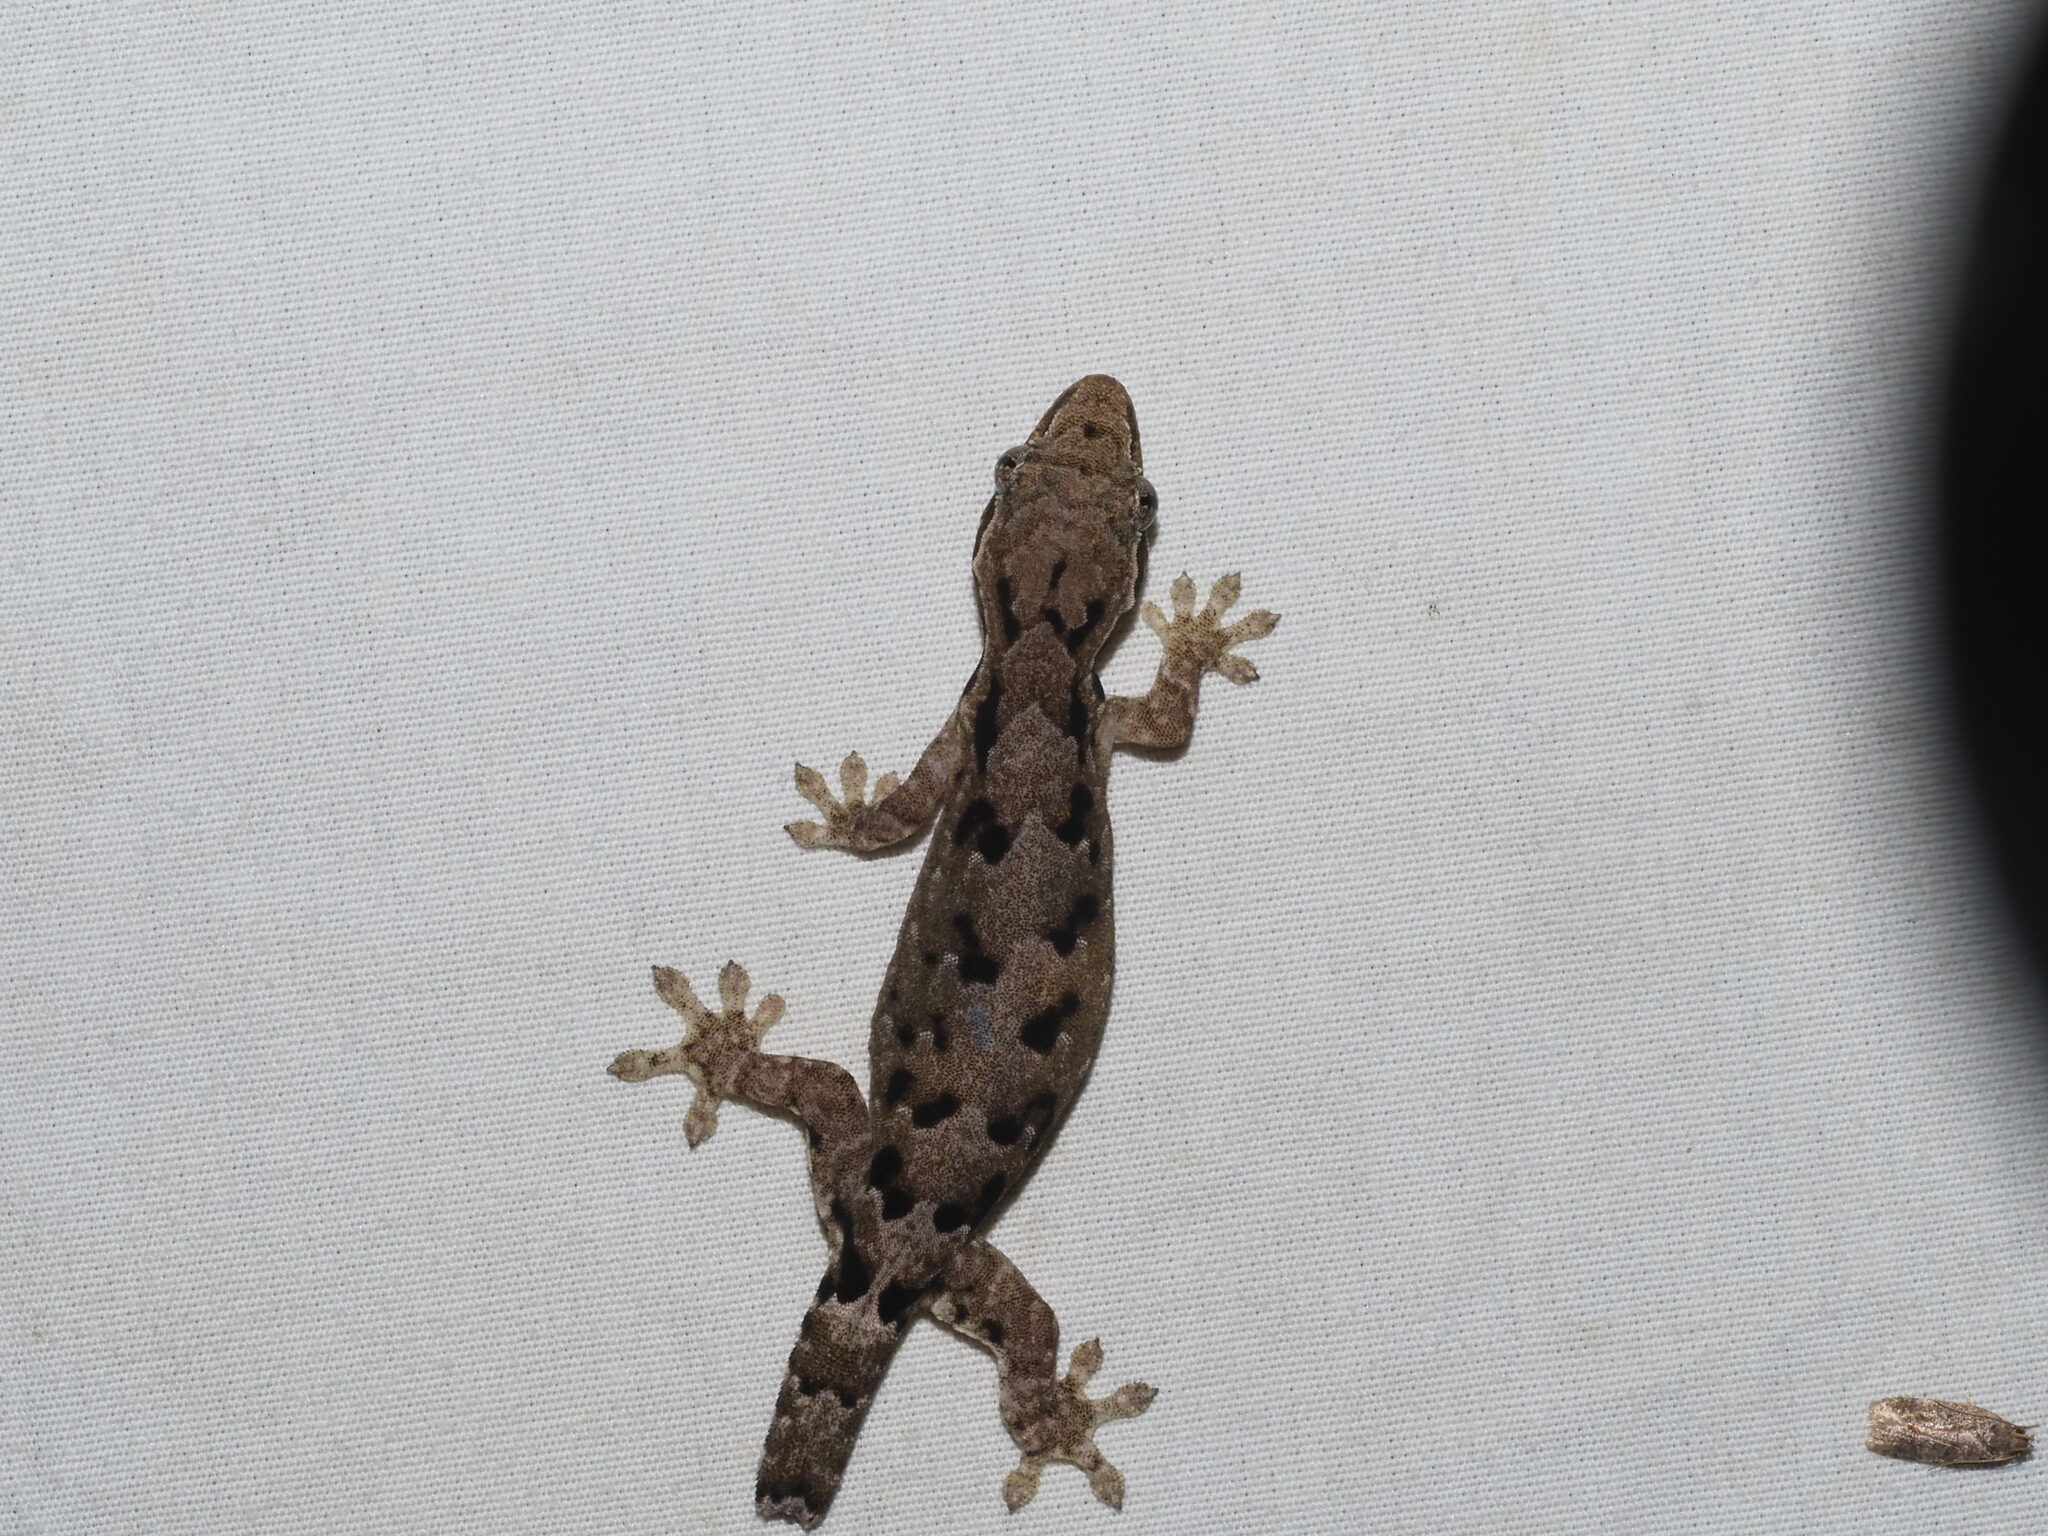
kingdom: Animalia
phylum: Chordata
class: Squamata
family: Gekkonidae
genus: Lepidodactylus
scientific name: Lepidodactylus lugubris
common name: Mourning gecko
